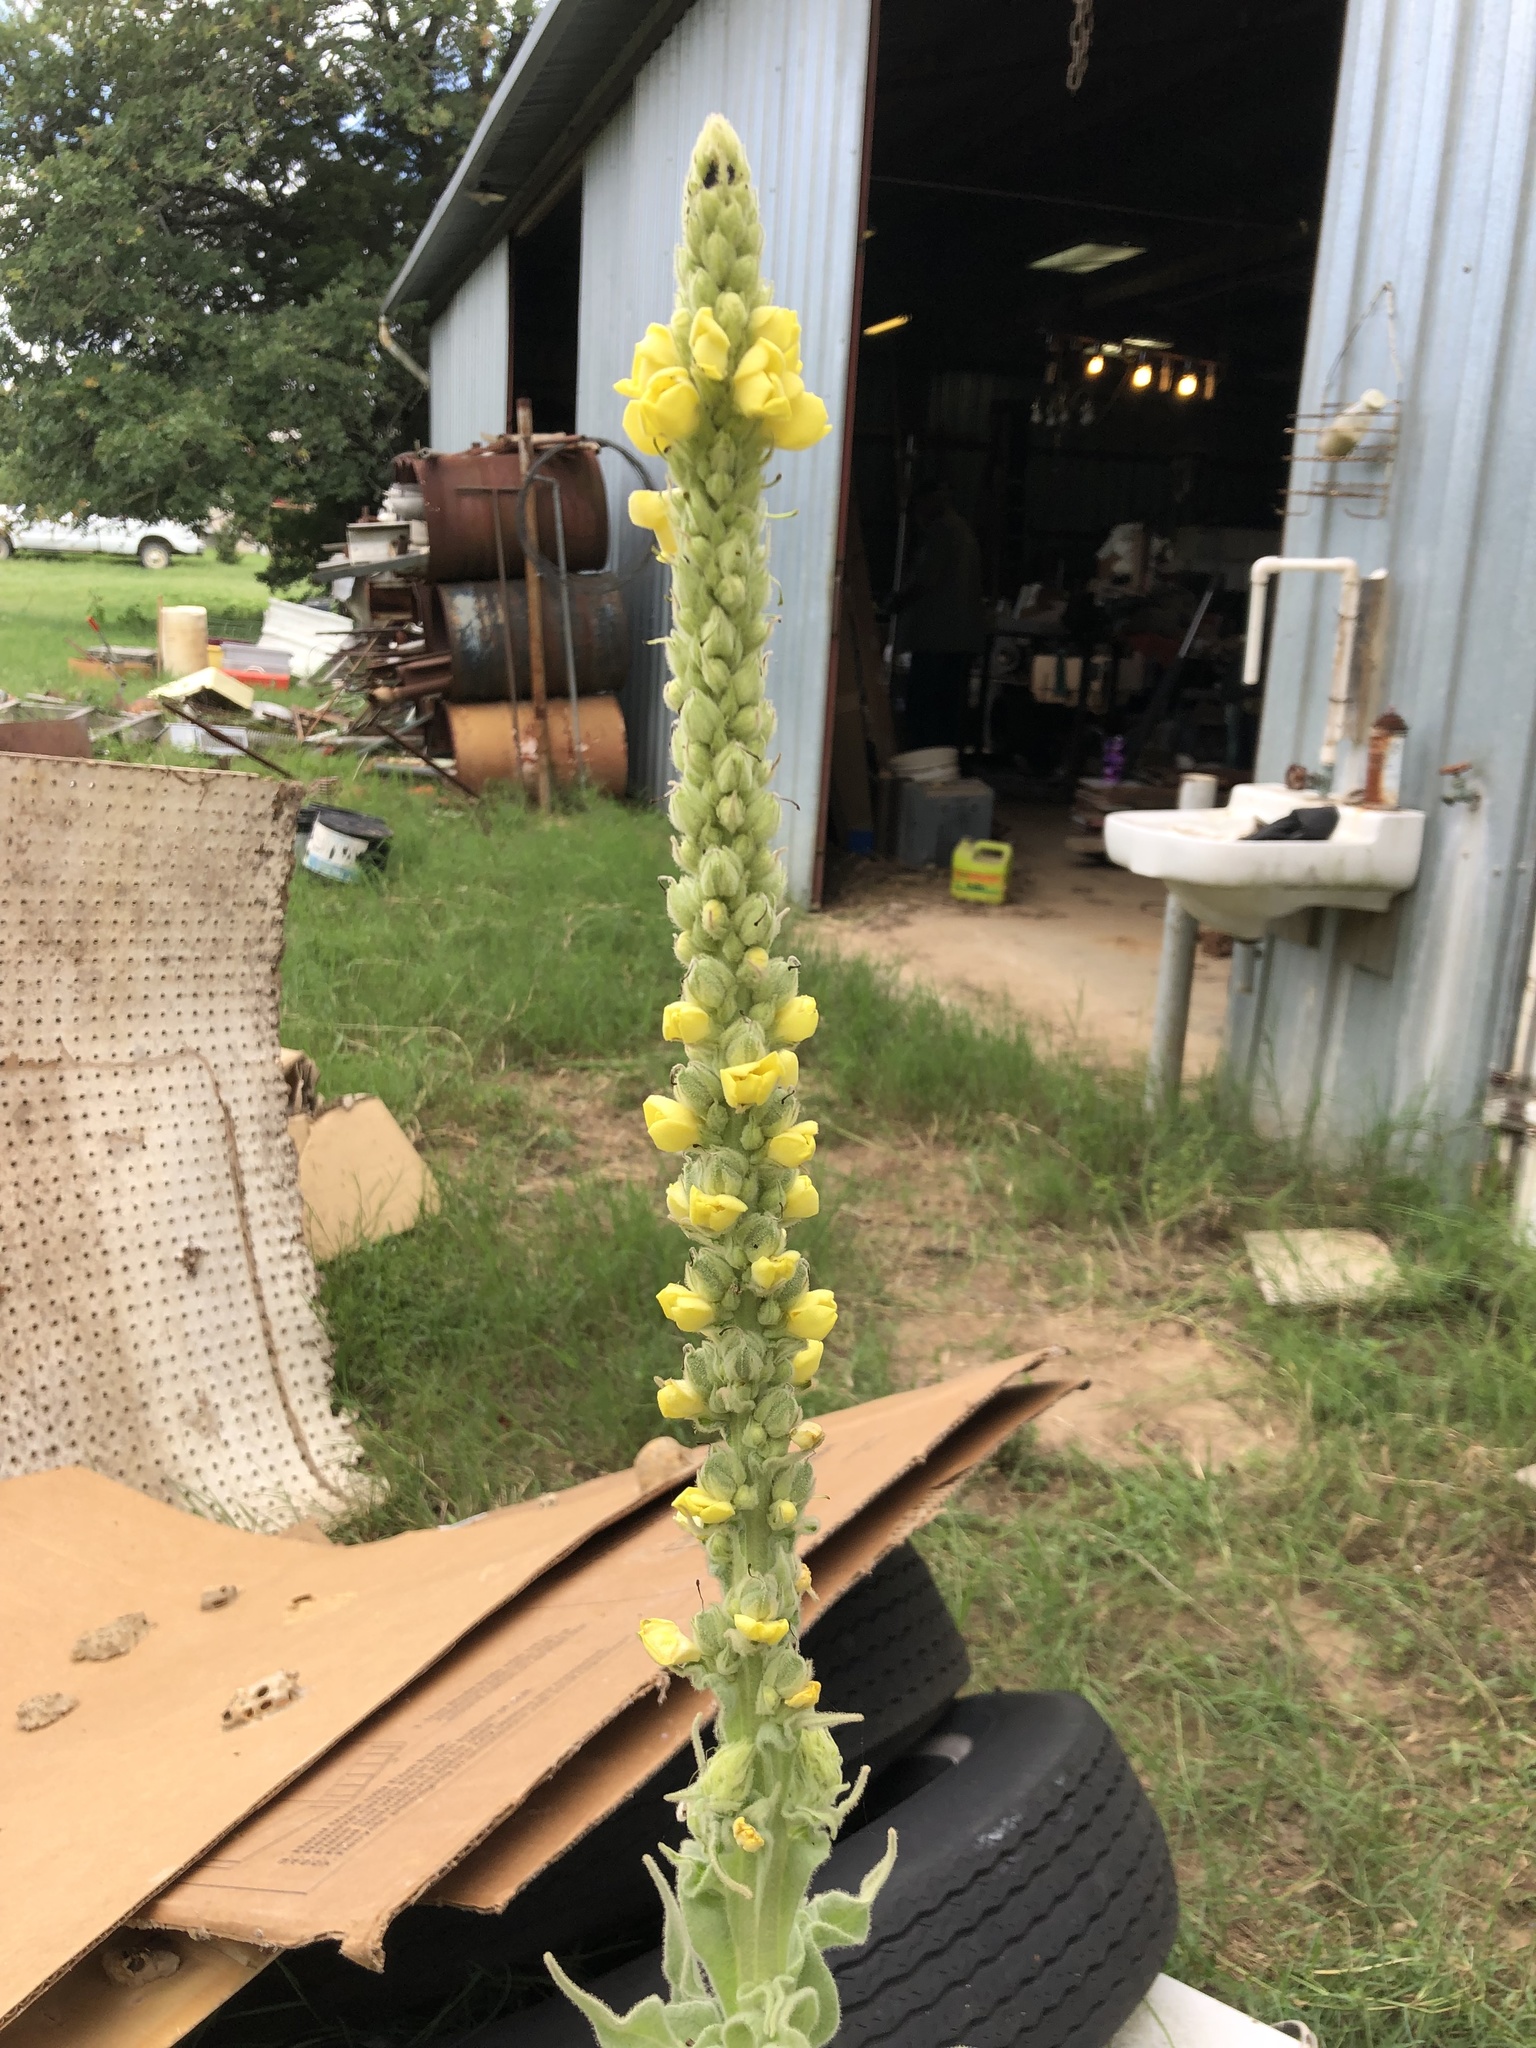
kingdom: Plantae
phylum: Tracheophyta
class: Magnoliopsida
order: Lamiales
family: Scrophulariaceae
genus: Verbascum
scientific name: Verbascum thapsus
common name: Common mullein
